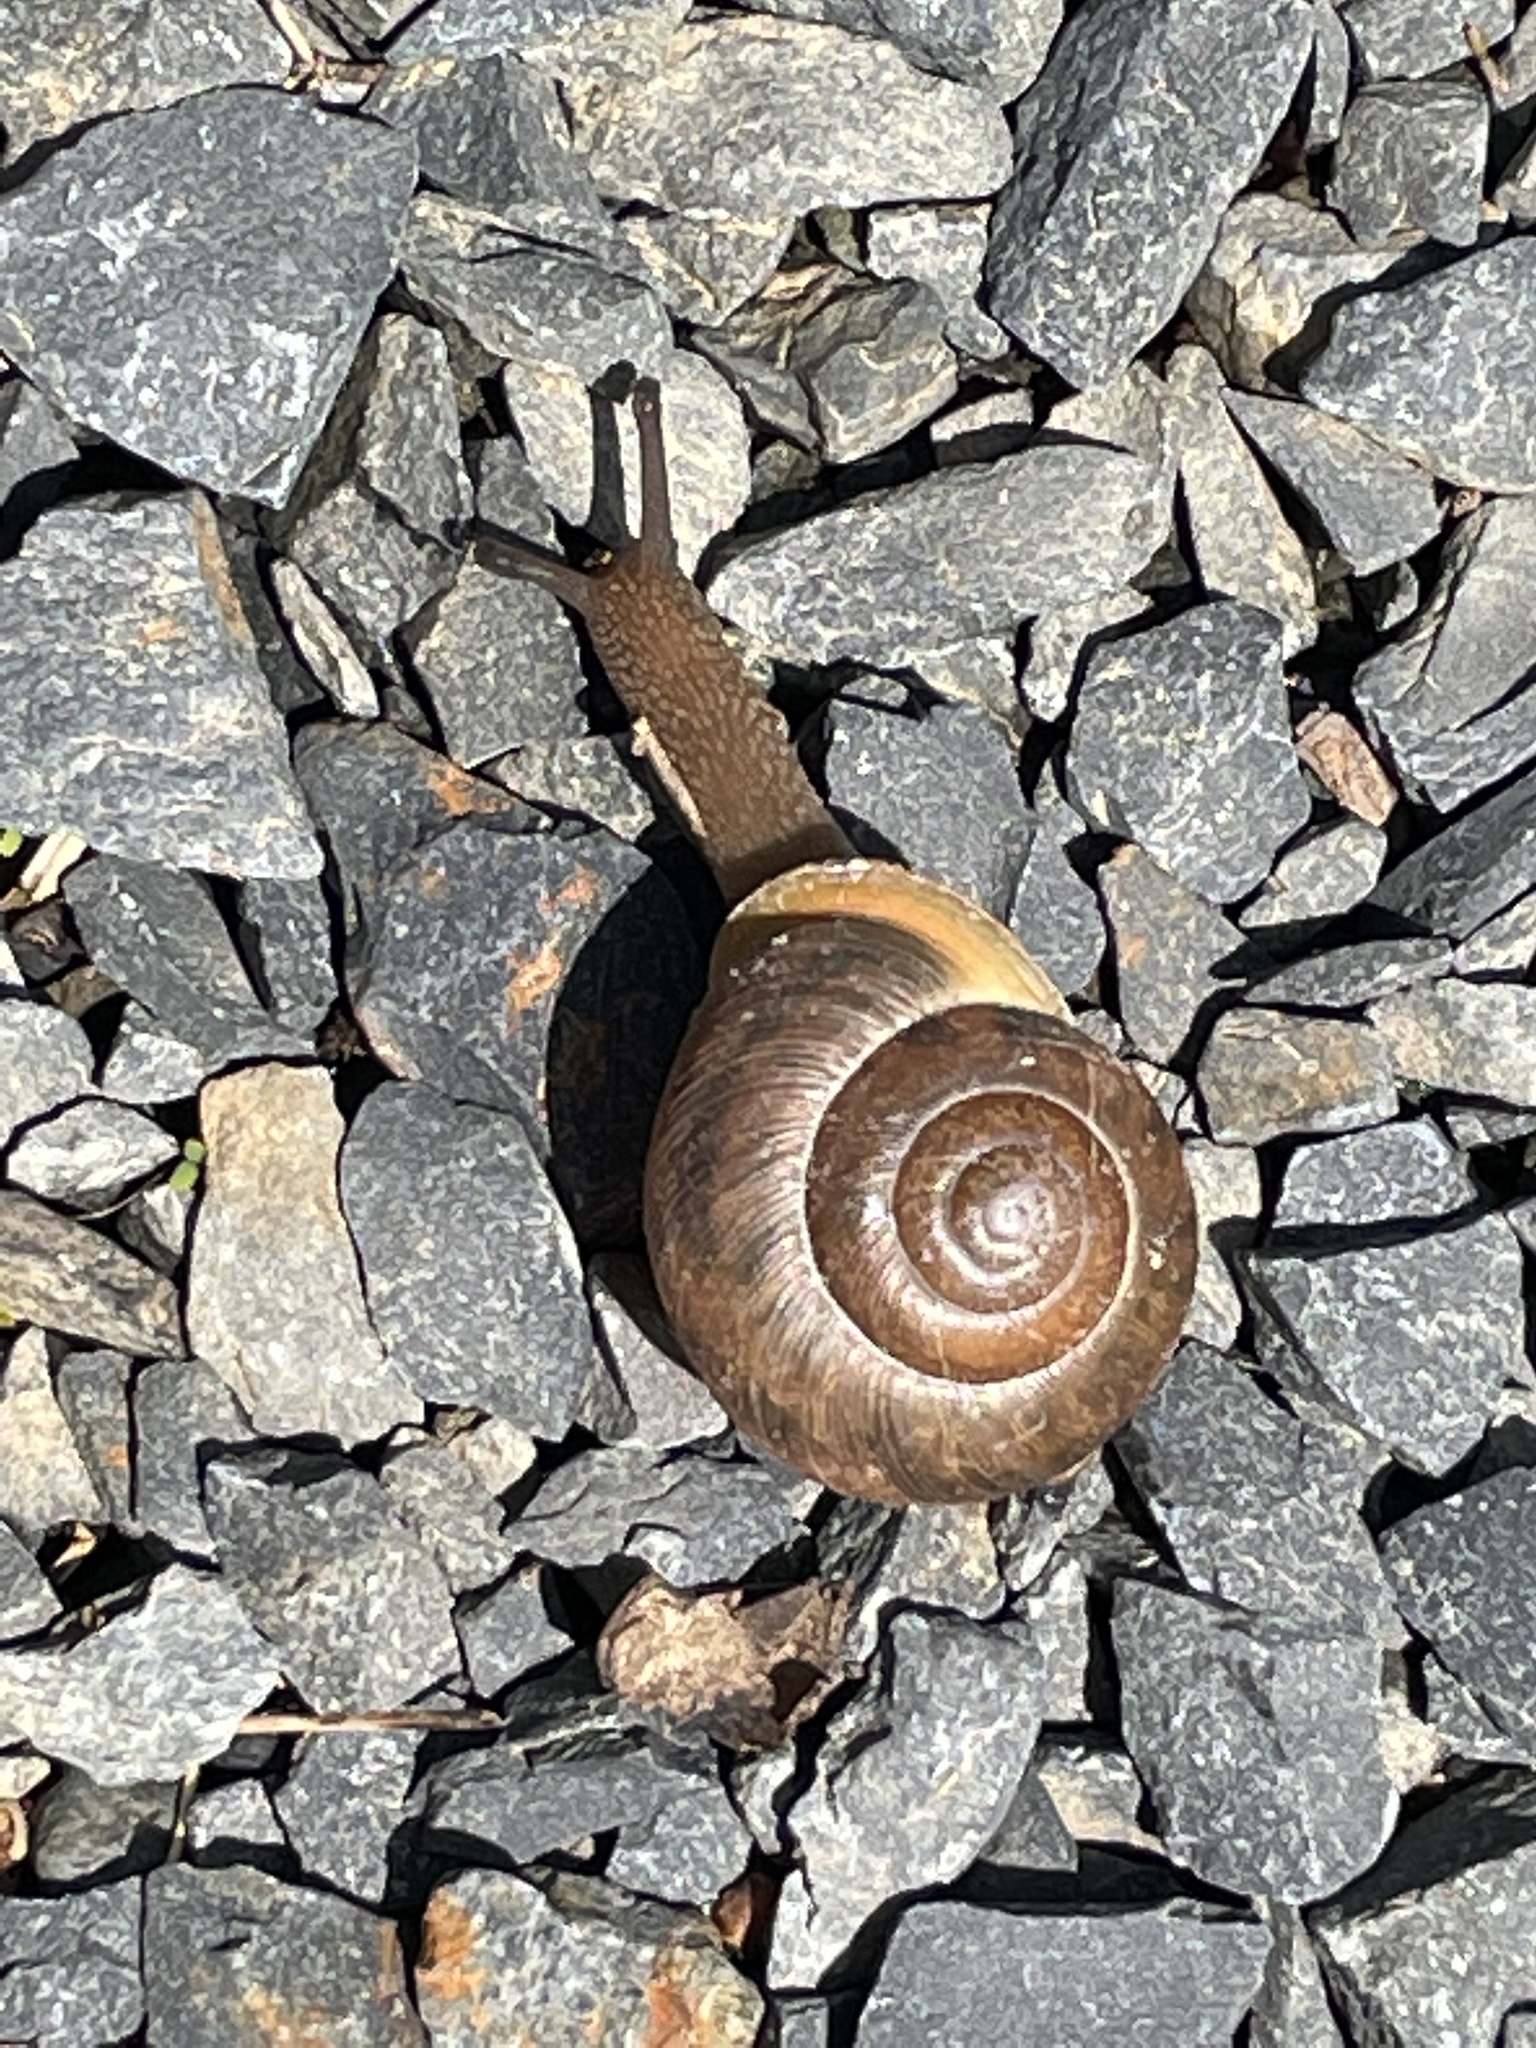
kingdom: Animalia
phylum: Mollusca
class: Gastropoda
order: Stylommatophora
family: Polygyridae
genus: Neohelix
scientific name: Neohelix major
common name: Southeastern whitelip
